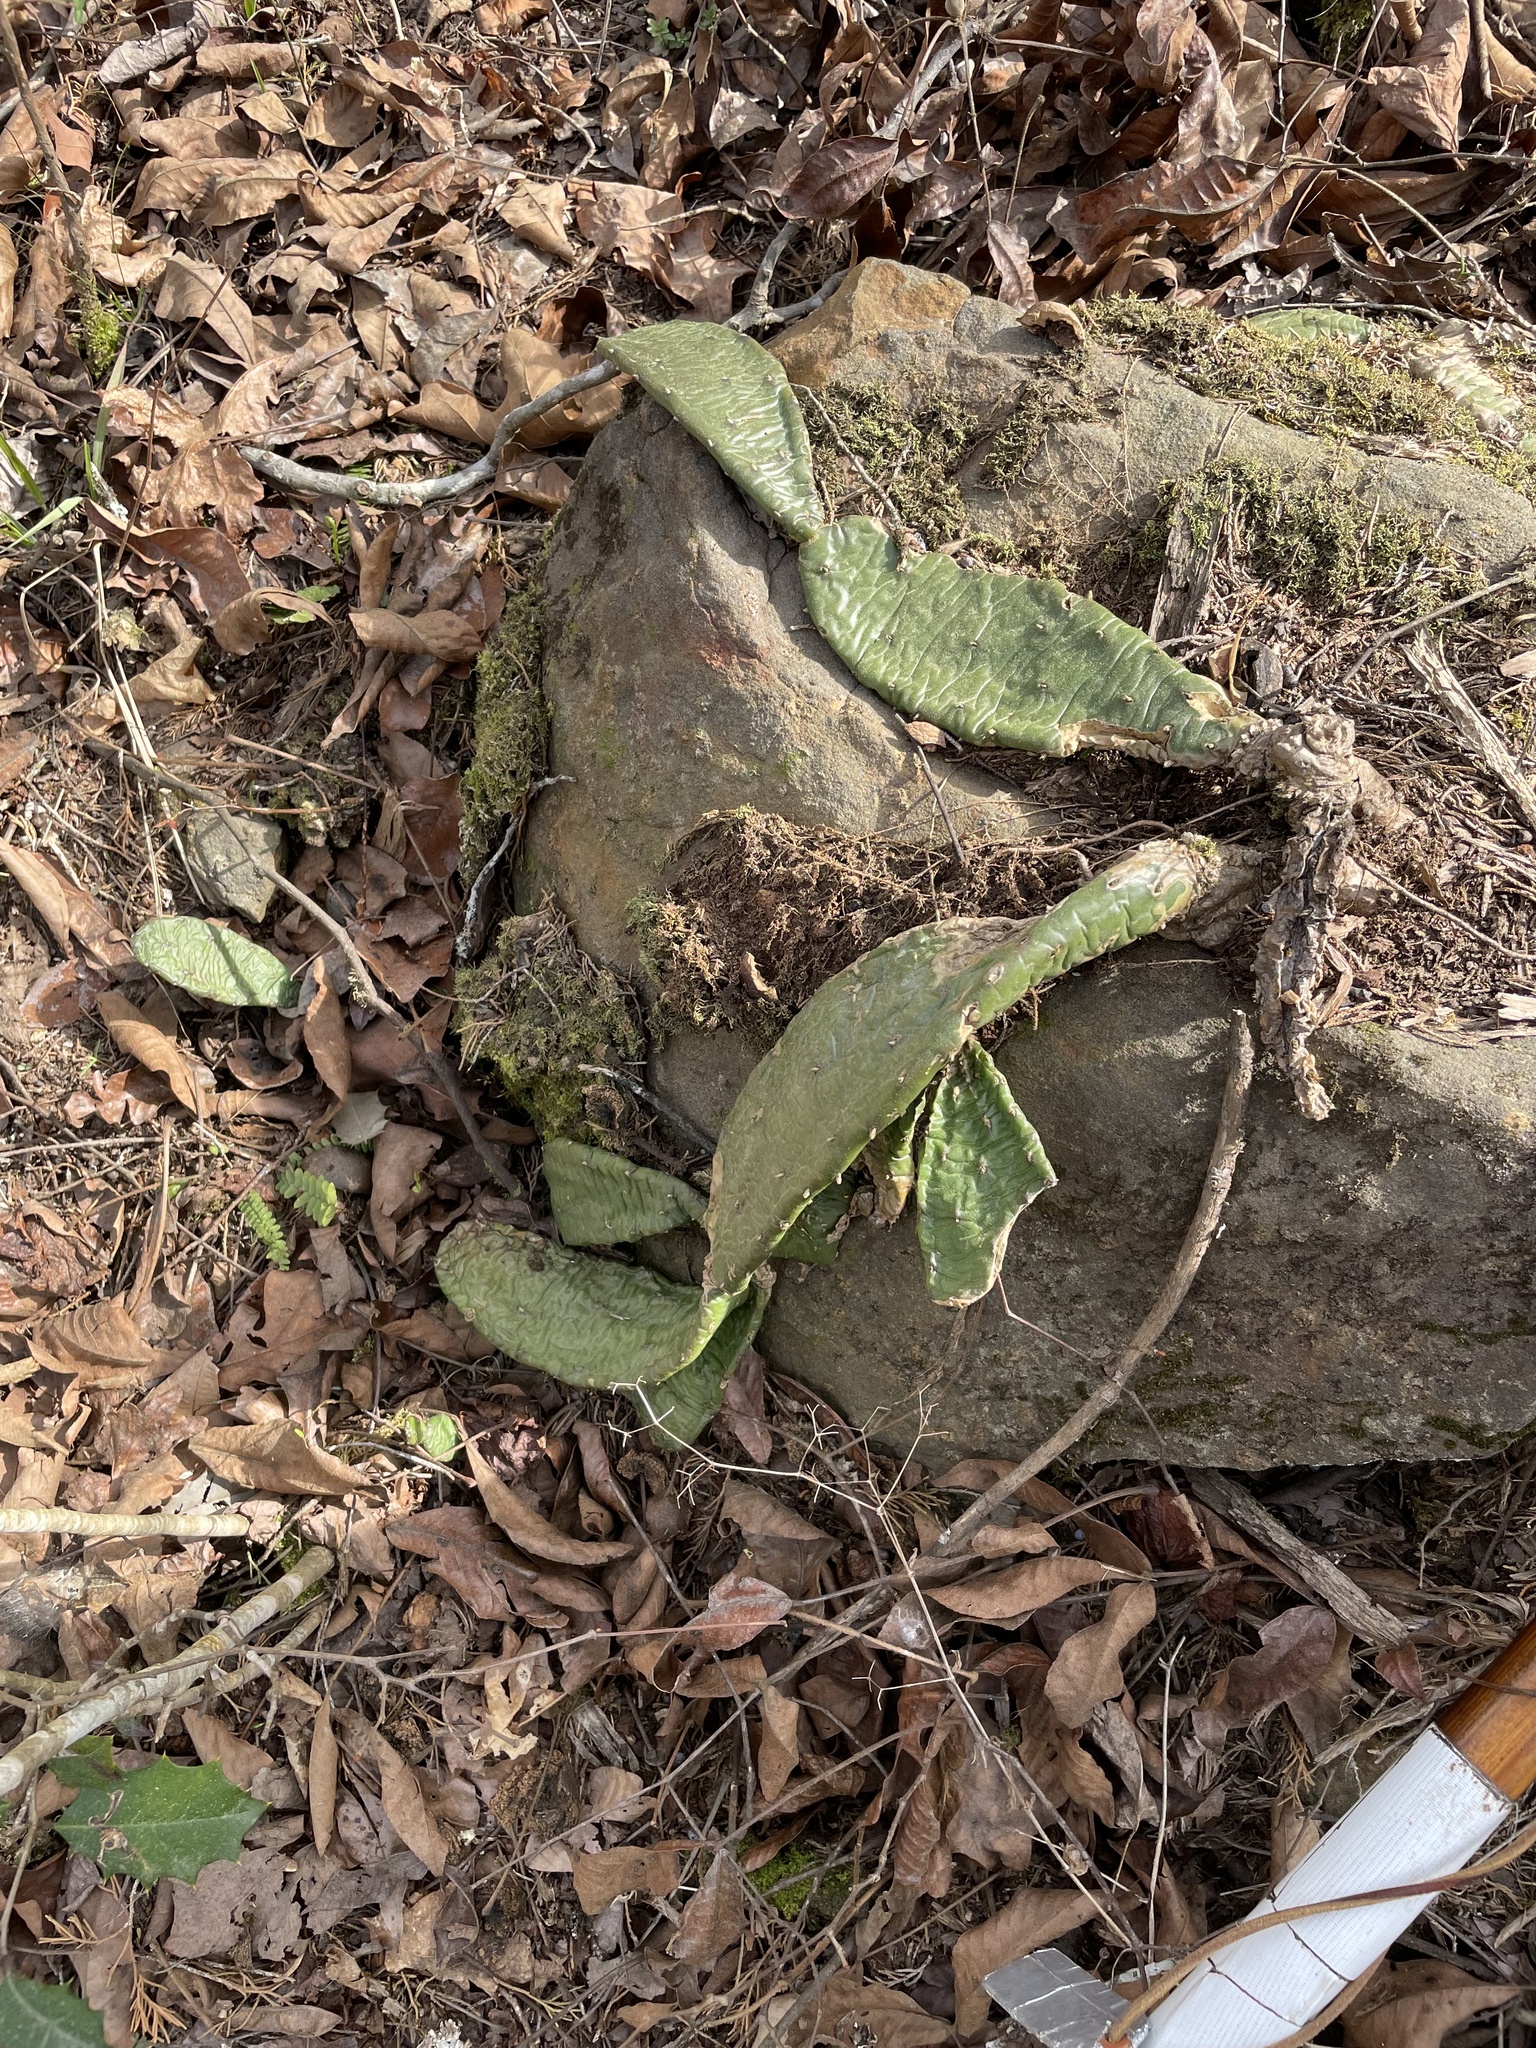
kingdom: Plantae
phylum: Tracheophyta
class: Magnoliopsida
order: Caryophyllales
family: Cactaceae
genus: Opuntia
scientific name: Opuntia mesacantha
